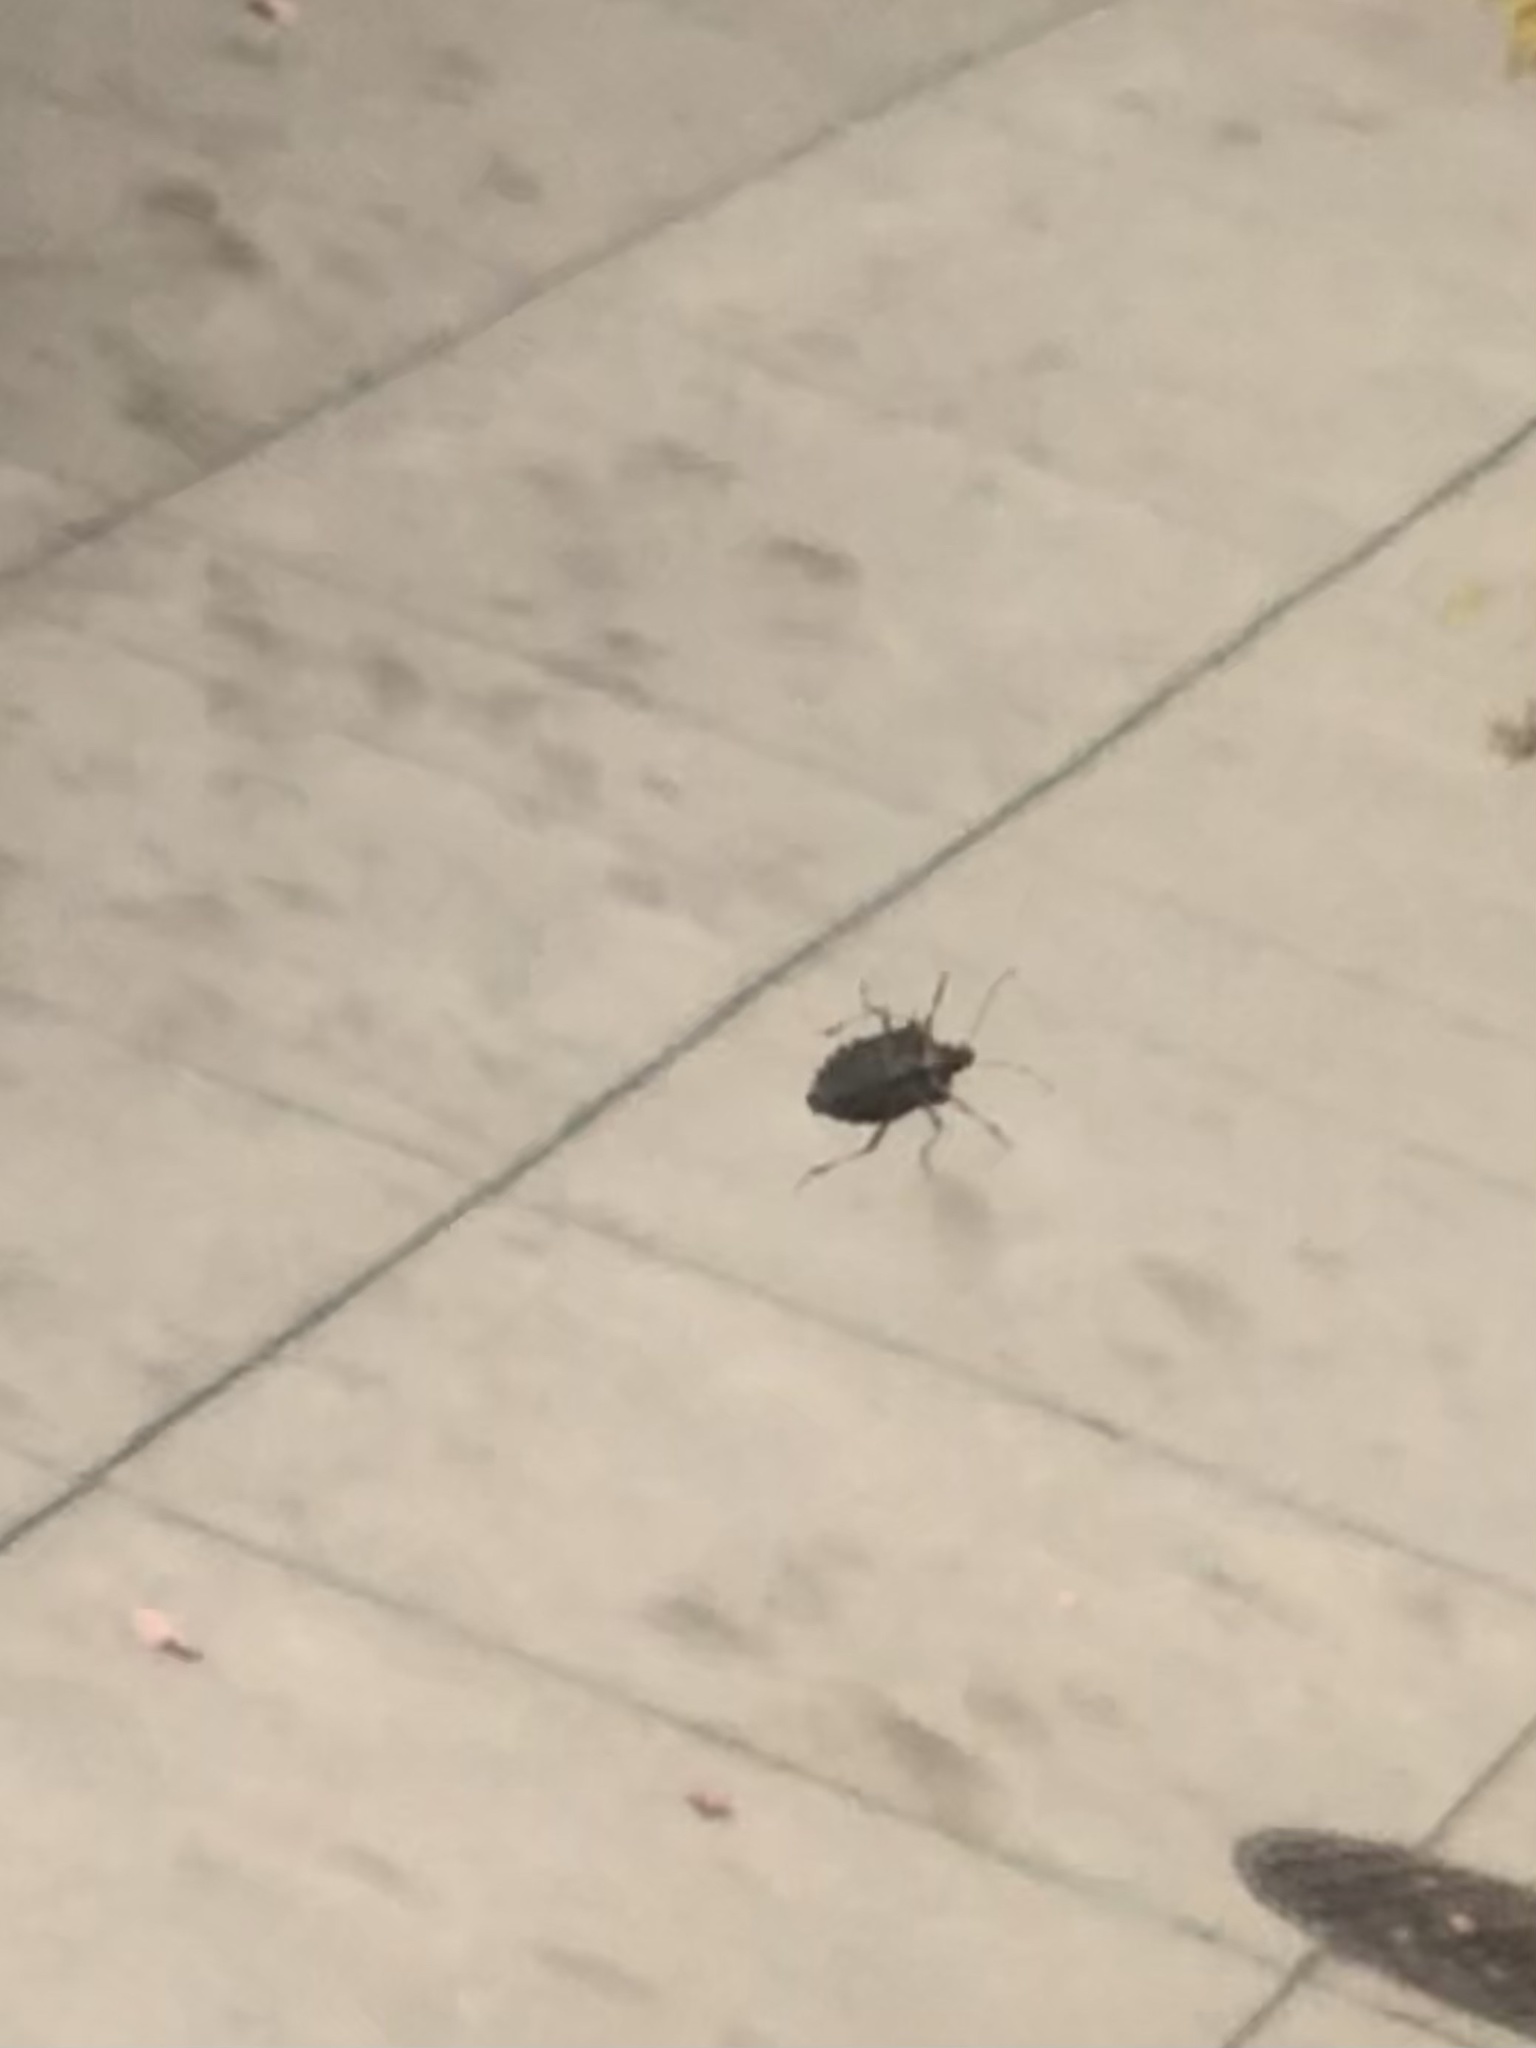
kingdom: Animalia
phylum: Arthropoda
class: Insecta
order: Hemiptera
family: Pentatomidae
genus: Halyomorpha
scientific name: Halyomorpha halys
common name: Brown marmorated stink bug
